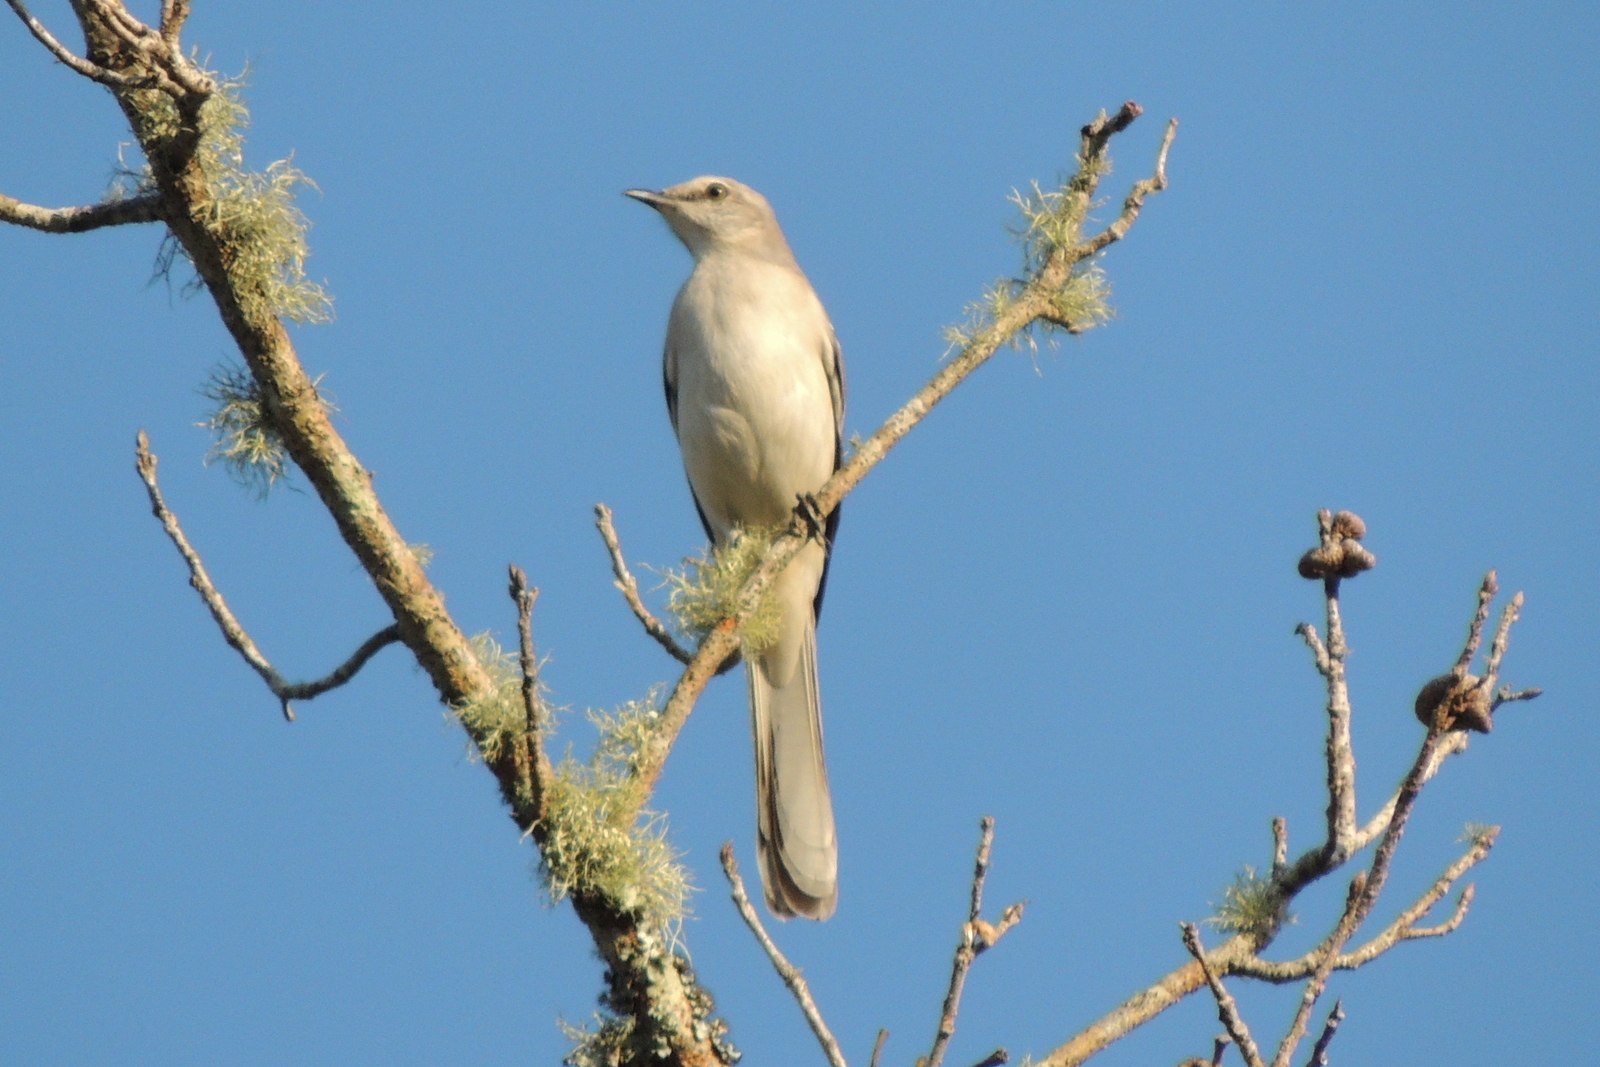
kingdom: Animalia
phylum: Chordata
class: Aves
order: Passeriformes
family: Mimidae
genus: Mimus
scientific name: Mimus polyglottos
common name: Northern mockingbird
